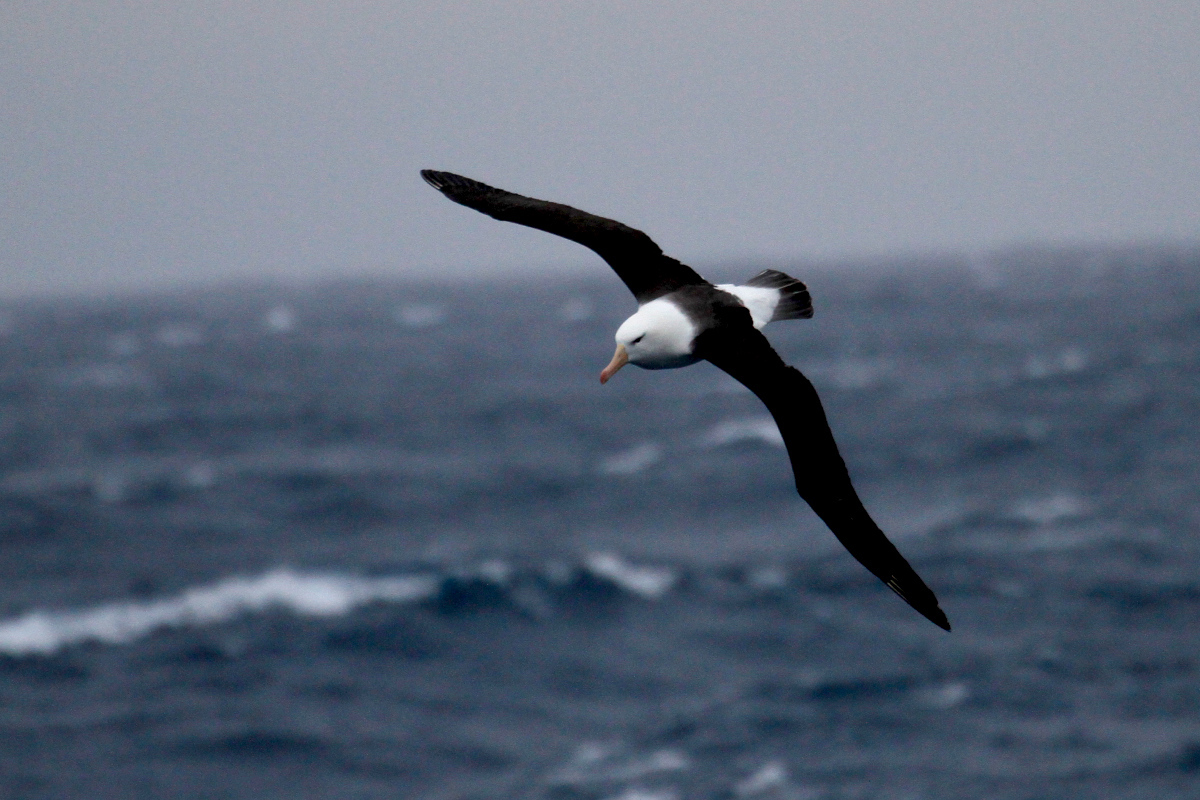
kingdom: Animalia
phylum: Chordata
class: Aves
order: Procellariiformes
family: Diomedeidae
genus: Thalassarche
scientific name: Thalassarche melanophris
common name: Black-browed albatross
